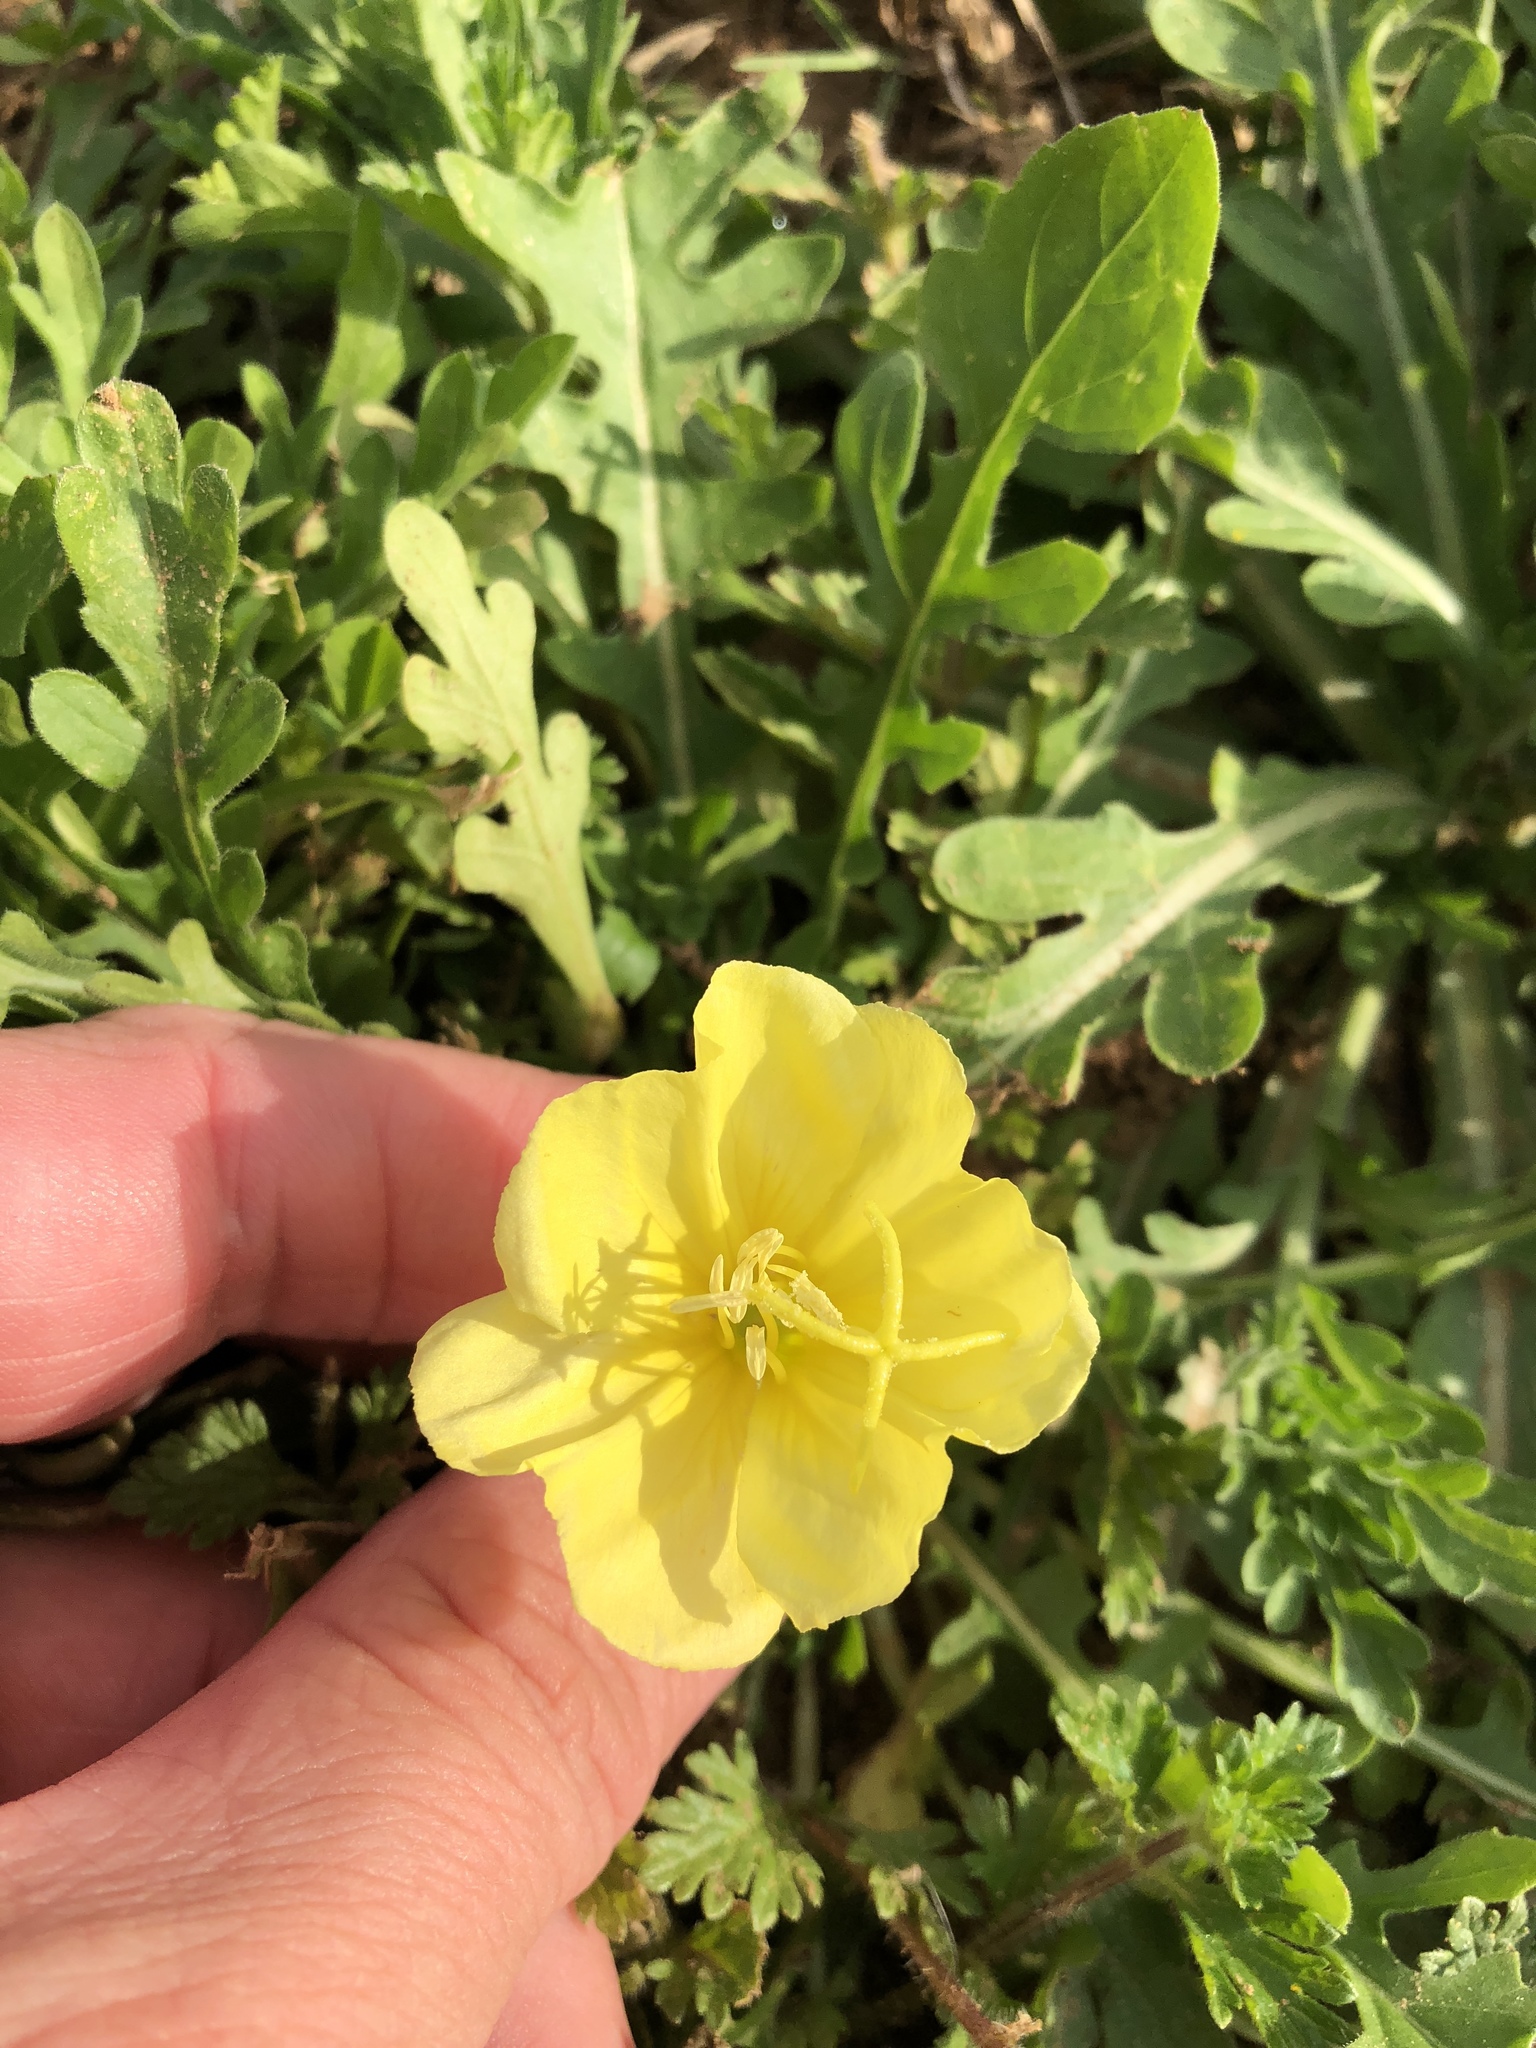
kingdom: Plantae
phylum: Tracheophyta
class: Magnoliopsida
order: Myrtales
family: Onagraceae
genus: Oenothera
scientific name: Oenothera triloba
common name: Sessile evening-primrose
